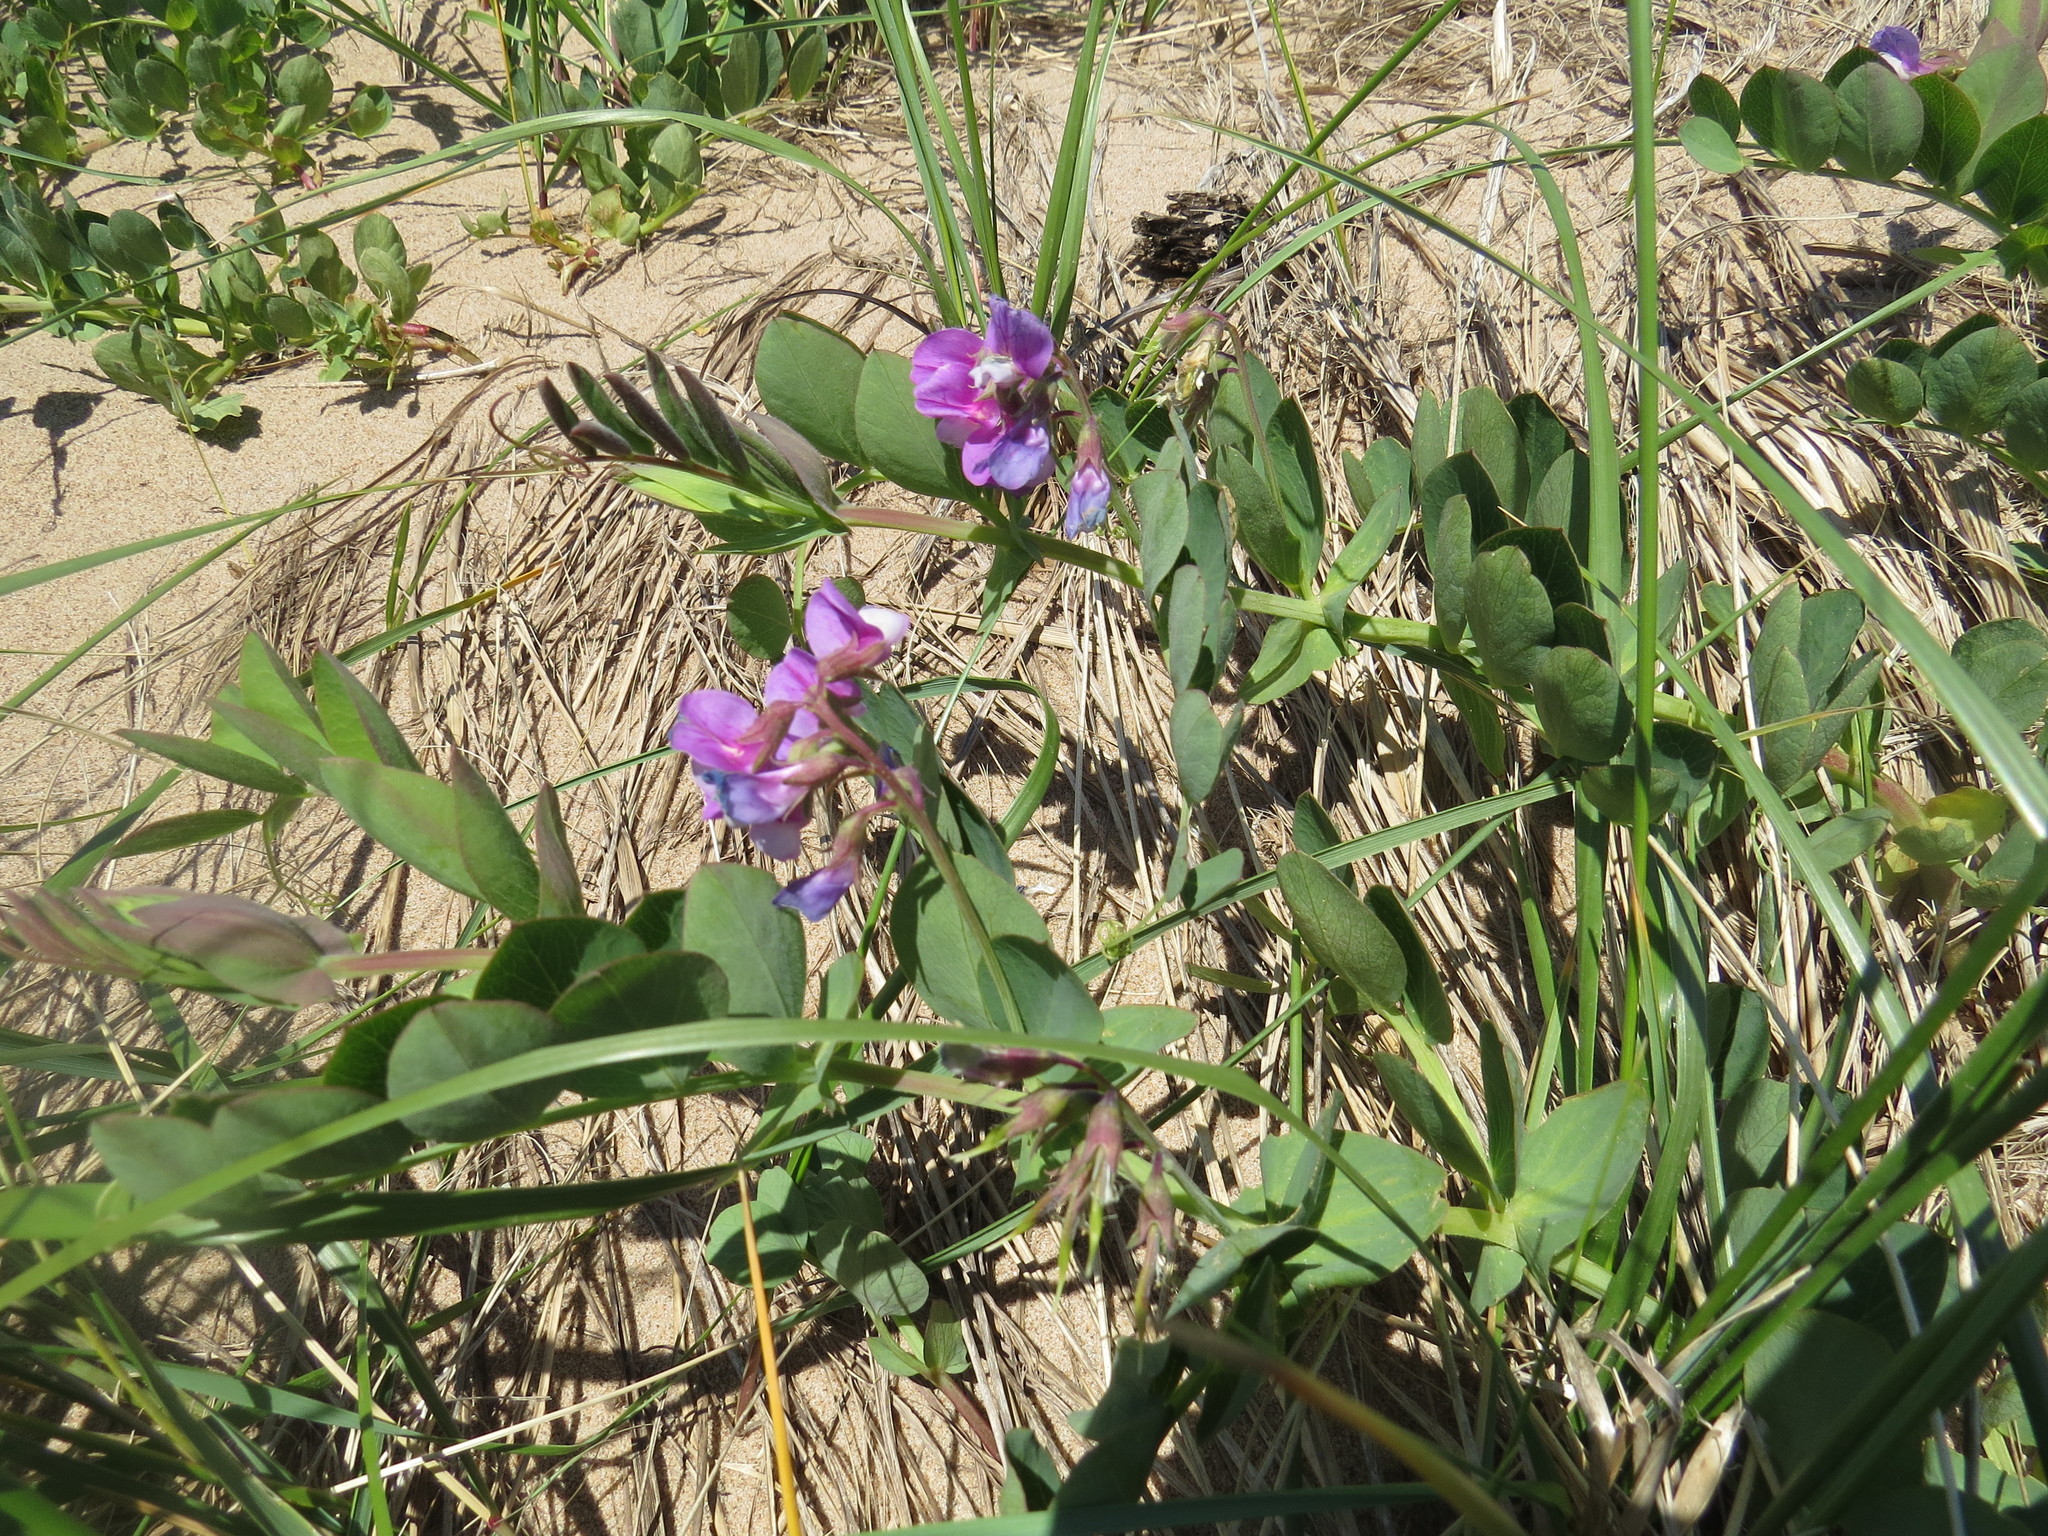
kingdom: Plantae
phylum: Tracheophyta
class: Magnoliopsida
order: Fabales
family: Fabaceae
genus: Lathyrus
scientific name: Lathyrus japonicus
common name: Sea pea
